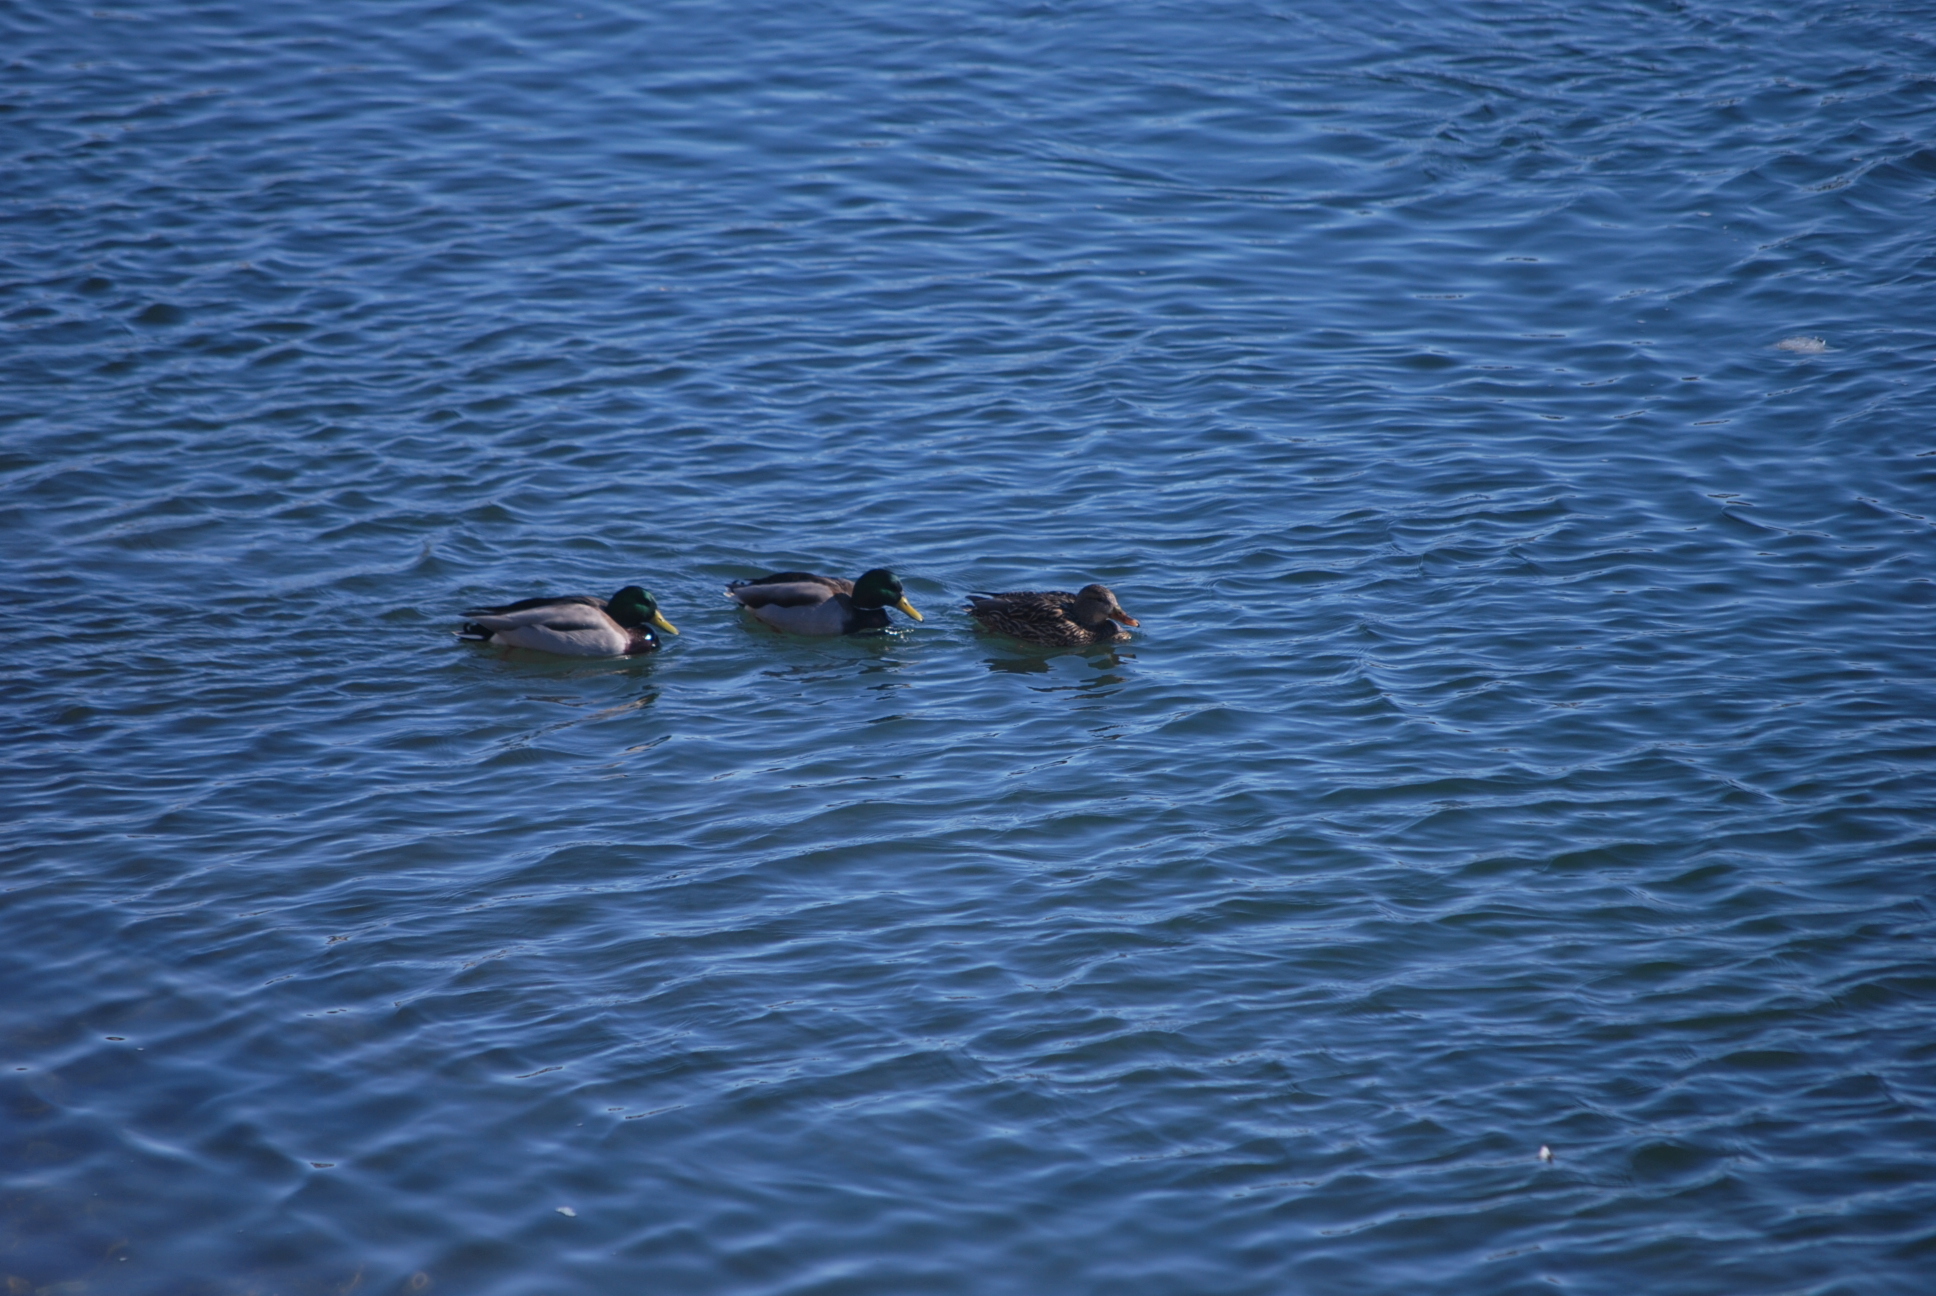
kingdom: Animalia
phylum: Chordata
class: Aves
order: Anseriformes
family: Anatidae
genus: Anas
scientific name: Anas platyrhynchos
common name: Mallard
